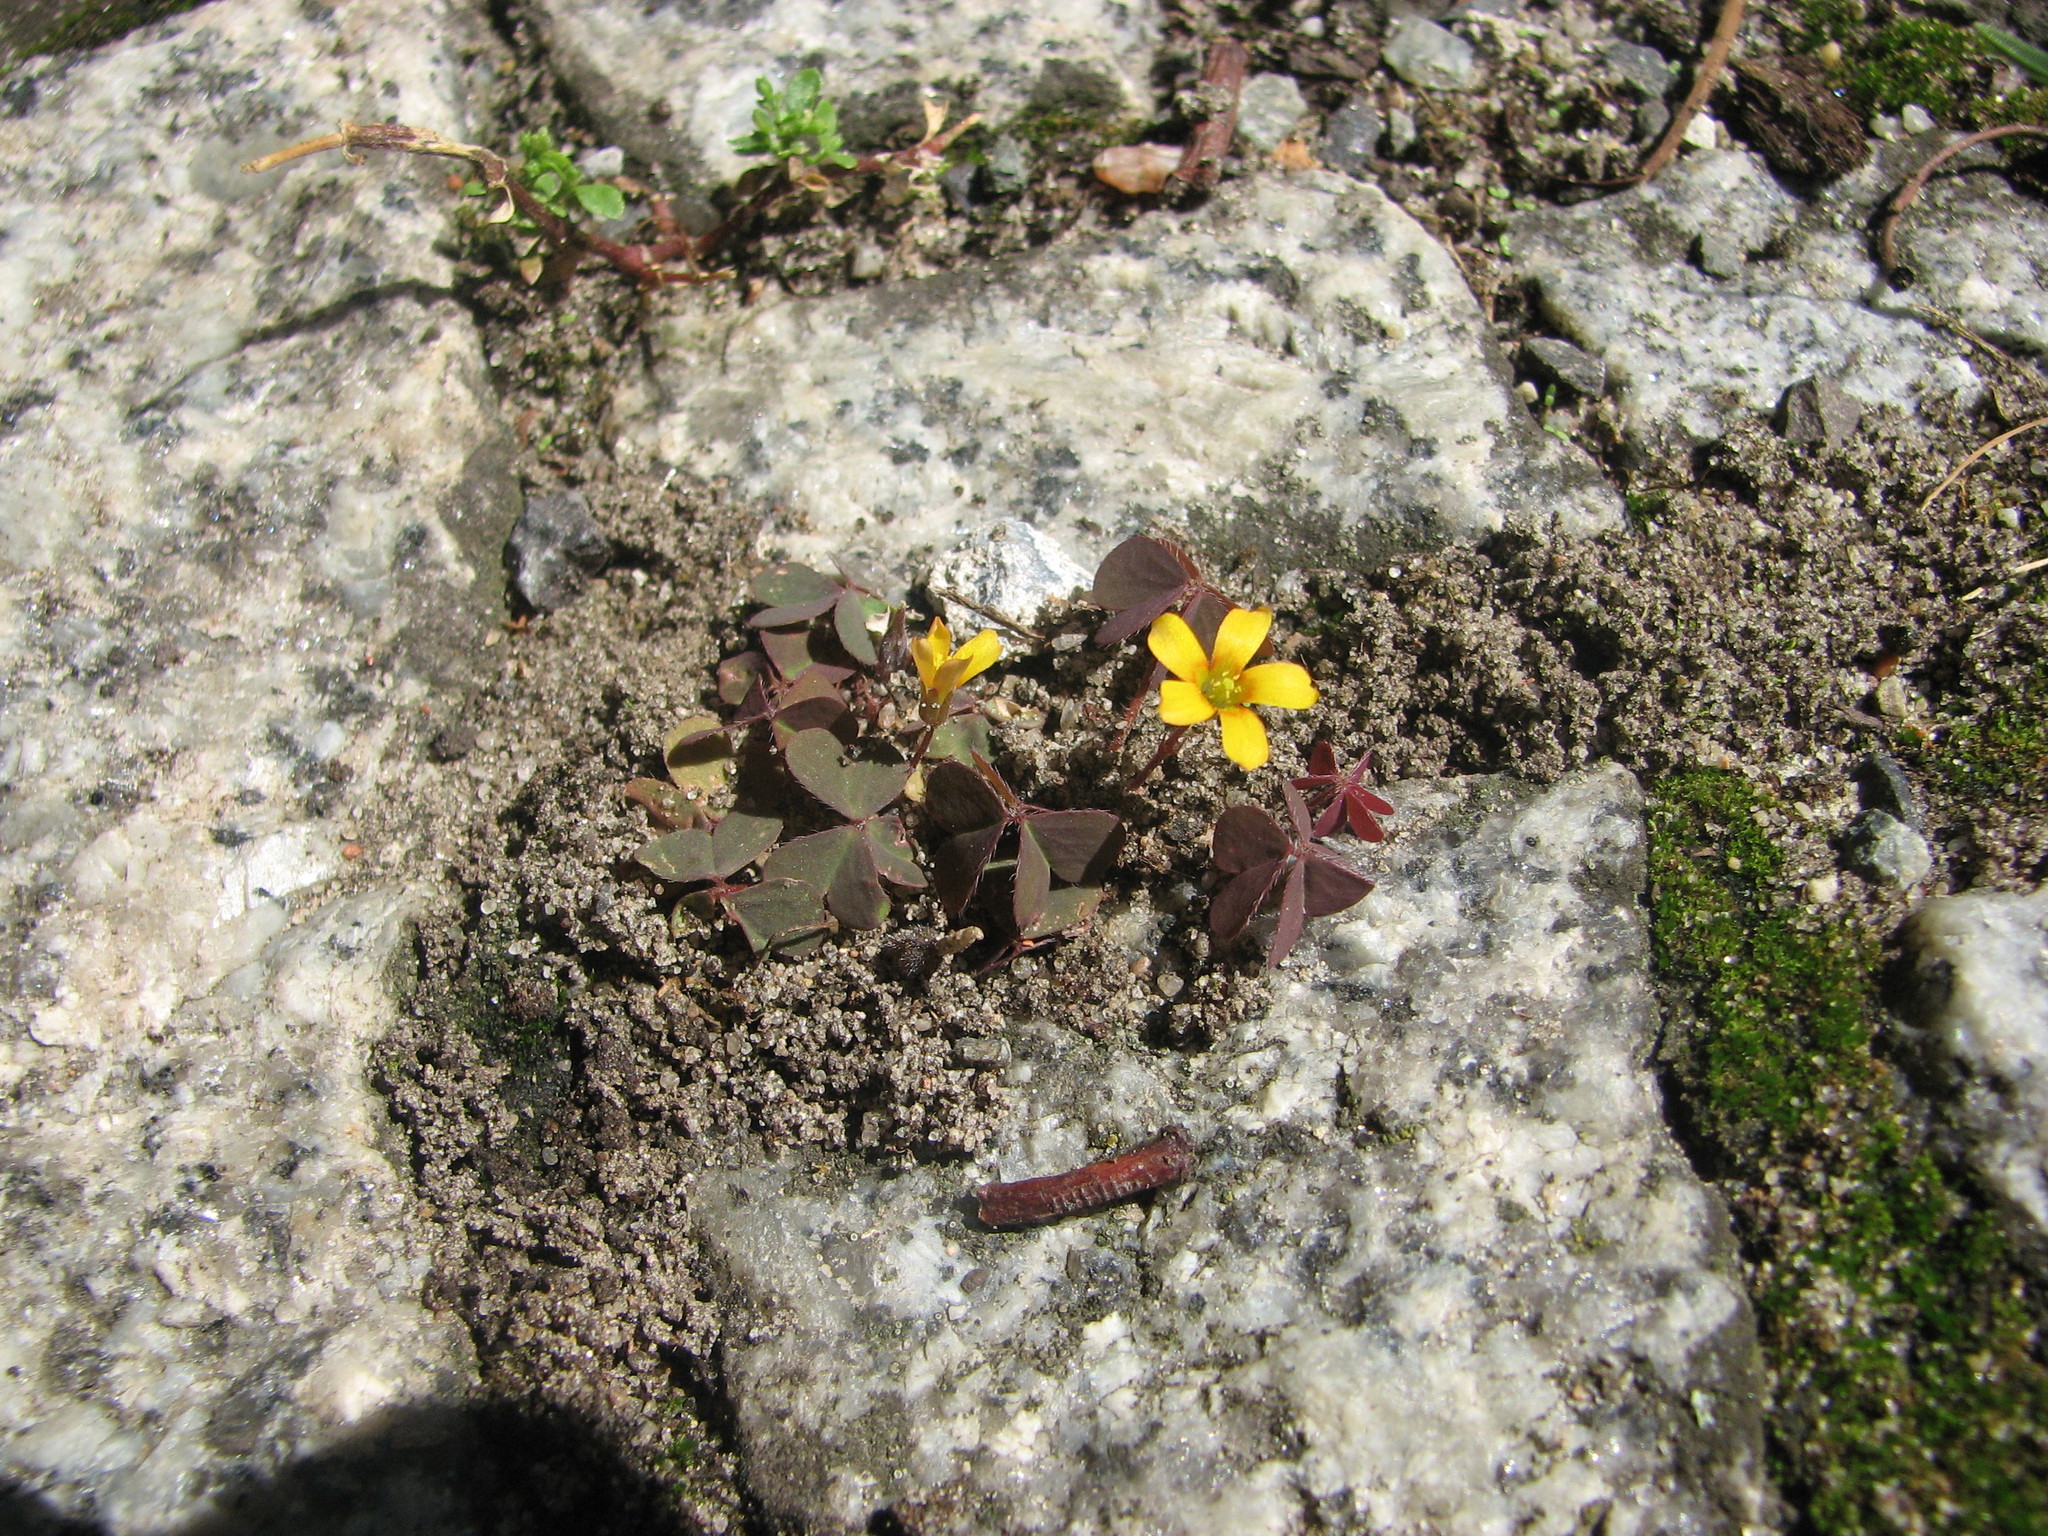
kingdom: Plantae
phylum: Tracheophyta
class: Magnoliopsida
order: Oxalidales
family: Oxalidaceae
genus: Oxalis
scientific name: Oxalis corniculata
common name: Procumbent yellow-sorrel
